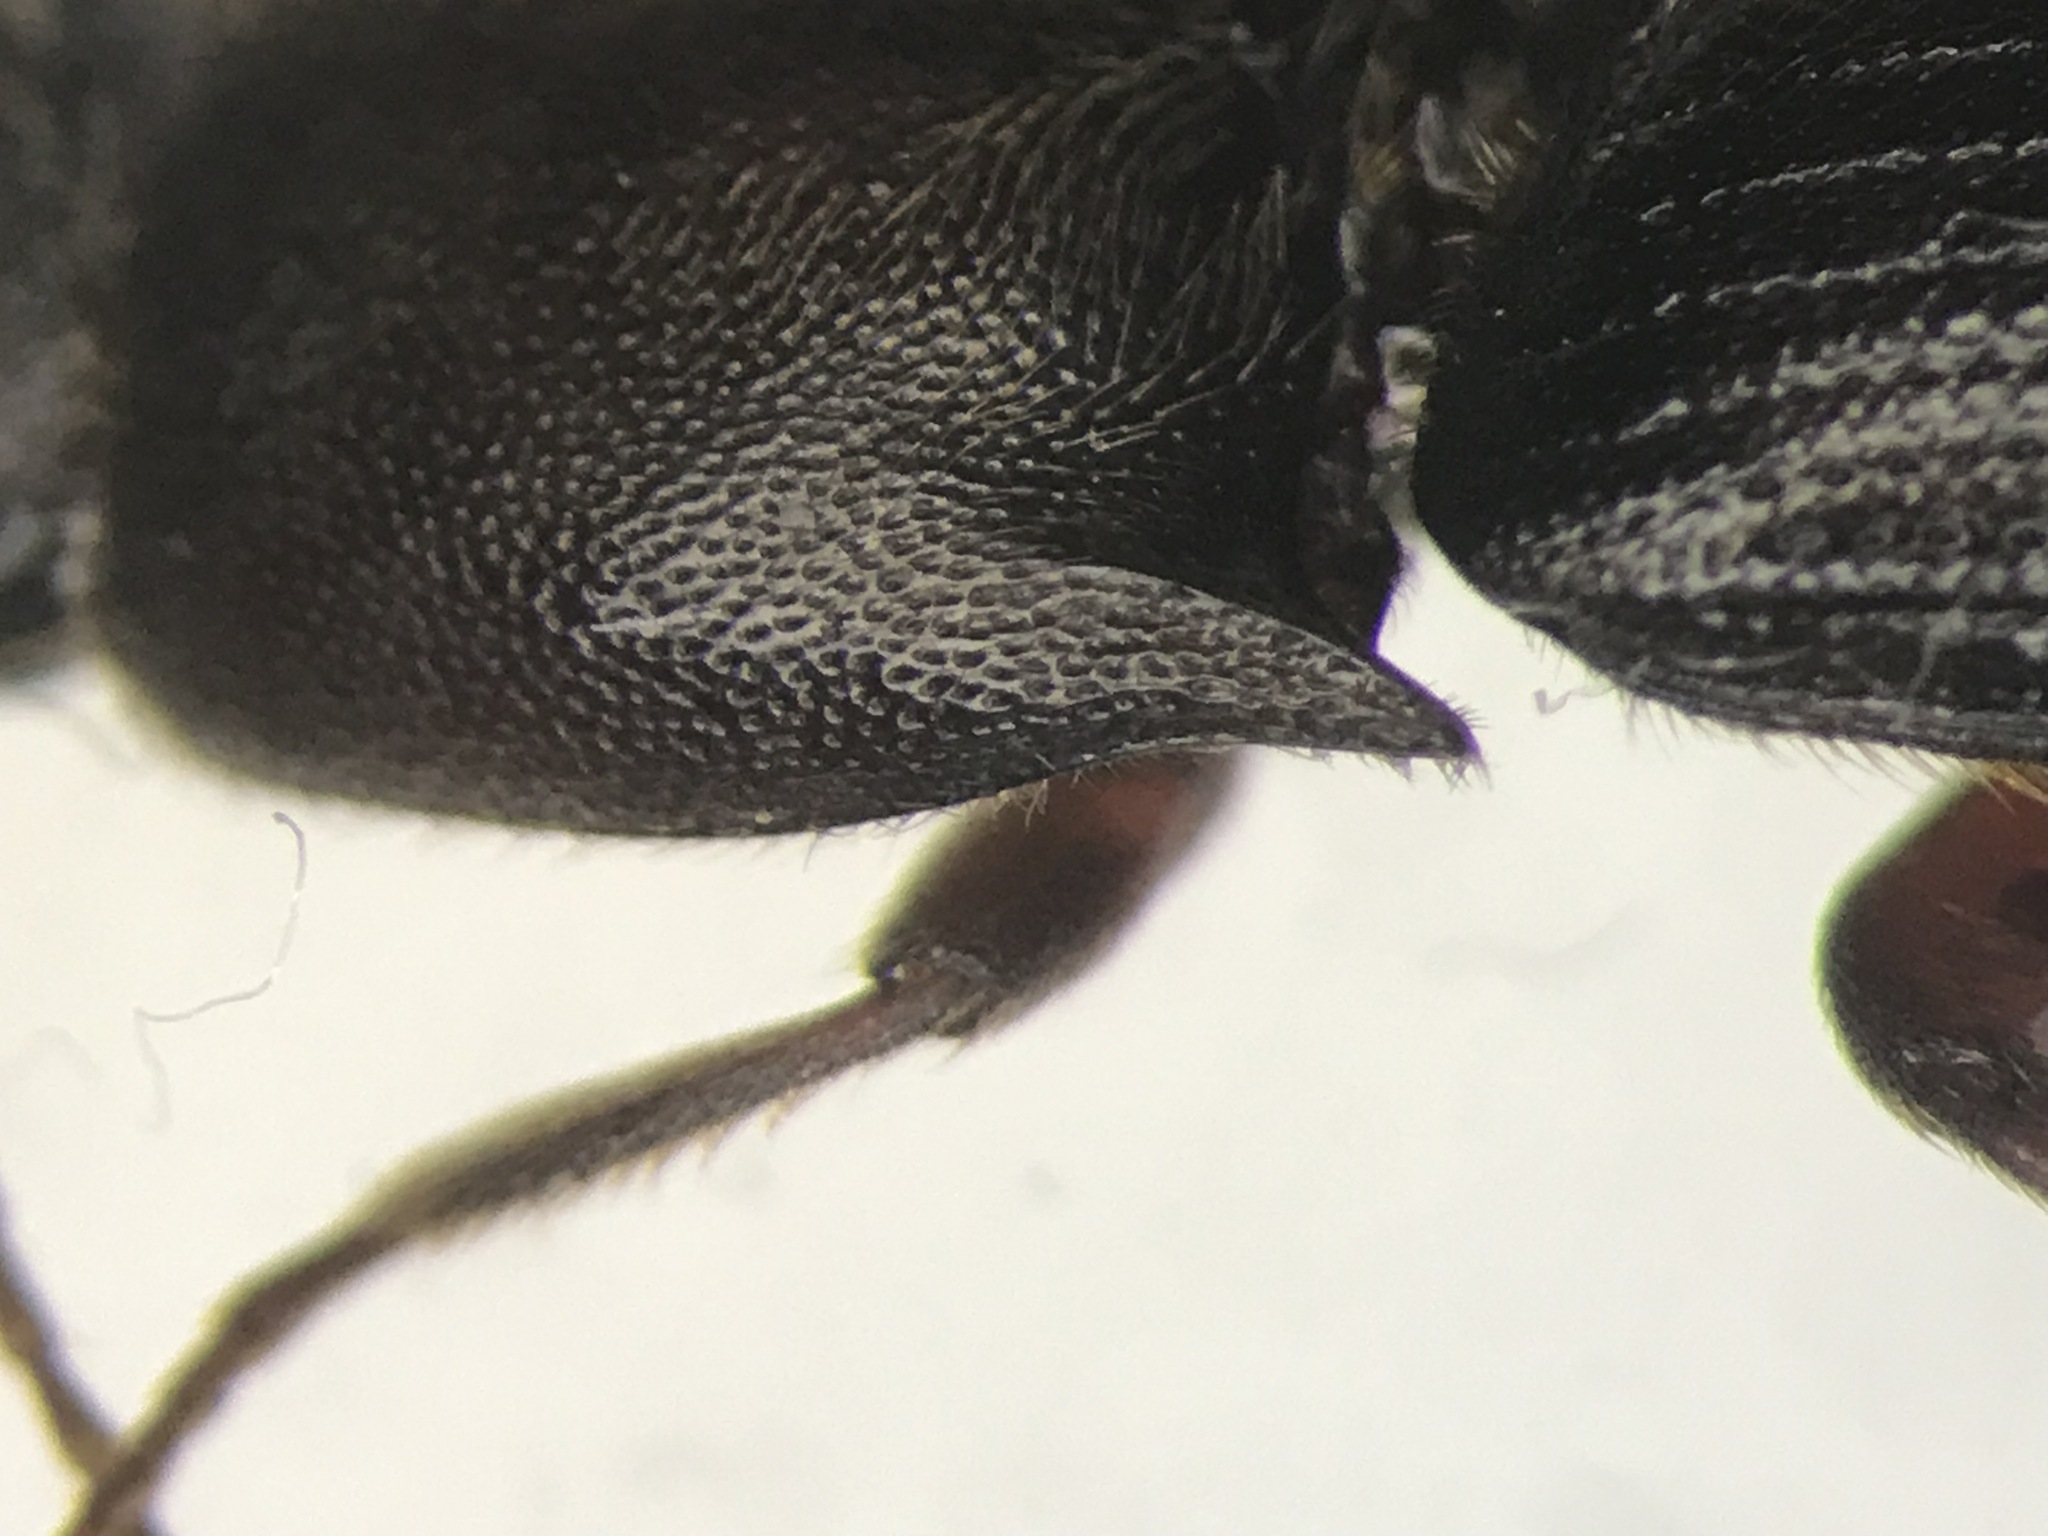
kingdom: Animalia
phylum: Arthropoda
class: Insecta
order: Coleoptera
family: Elateridae
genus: Ampedus
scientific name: Ampedus melanotoides
